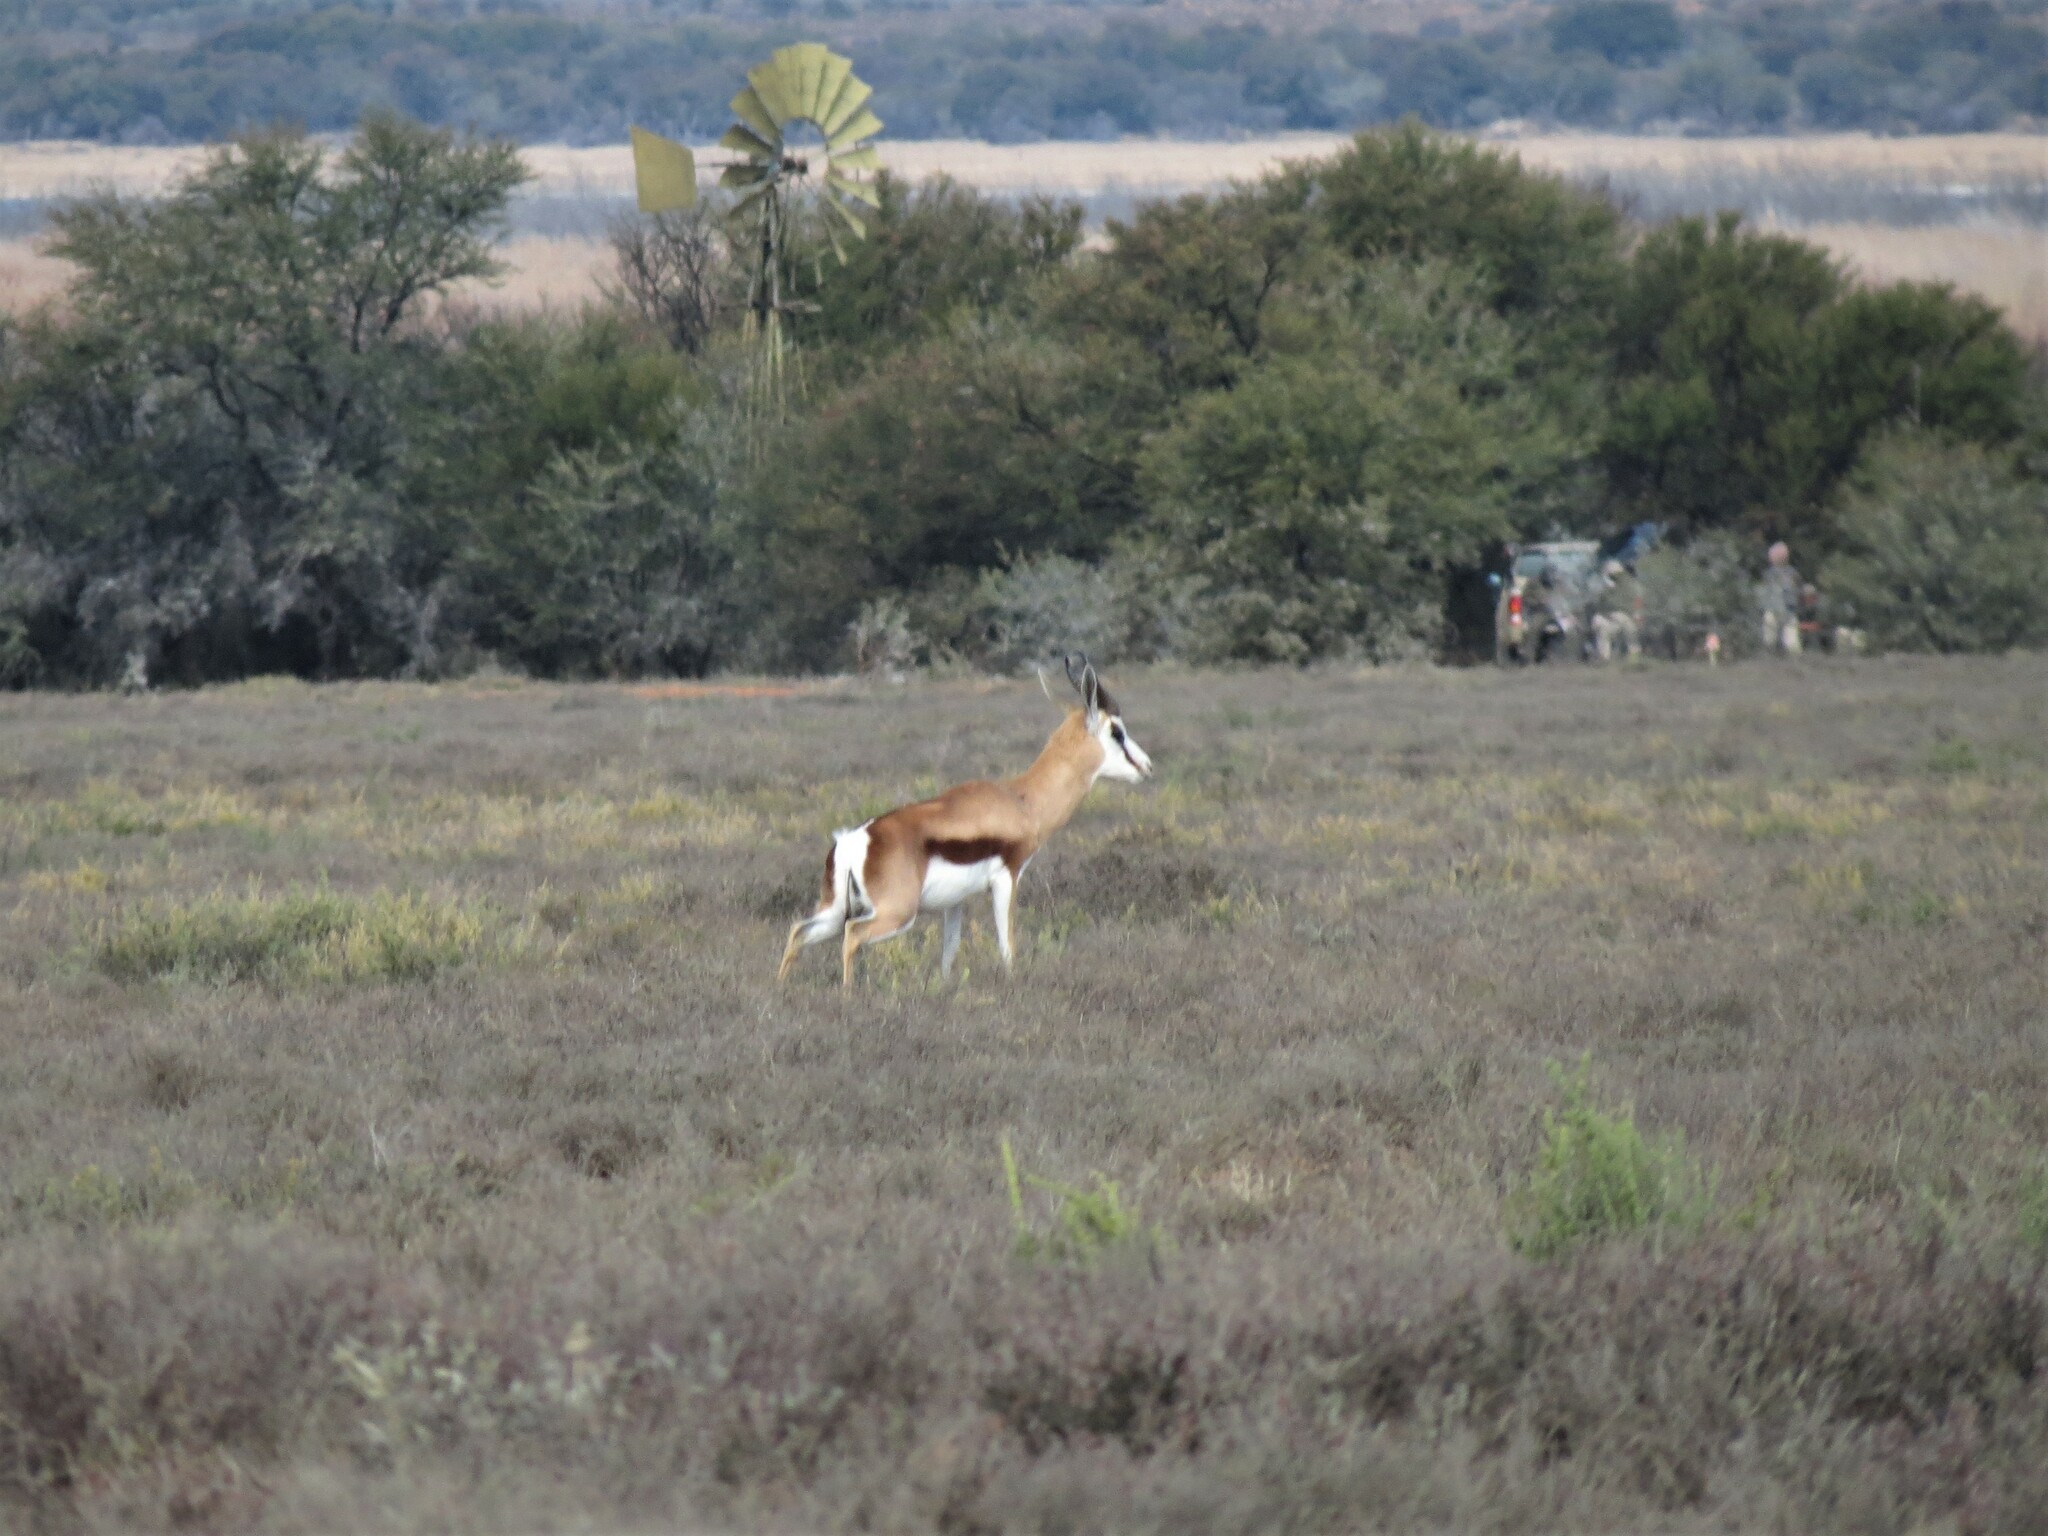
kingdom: Animalia
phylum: Chordata
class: Mammalia
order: Artiodactyla
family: Bovidae
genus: Antidorcas
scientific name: Antidorcas marsupialis
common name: Springbok
